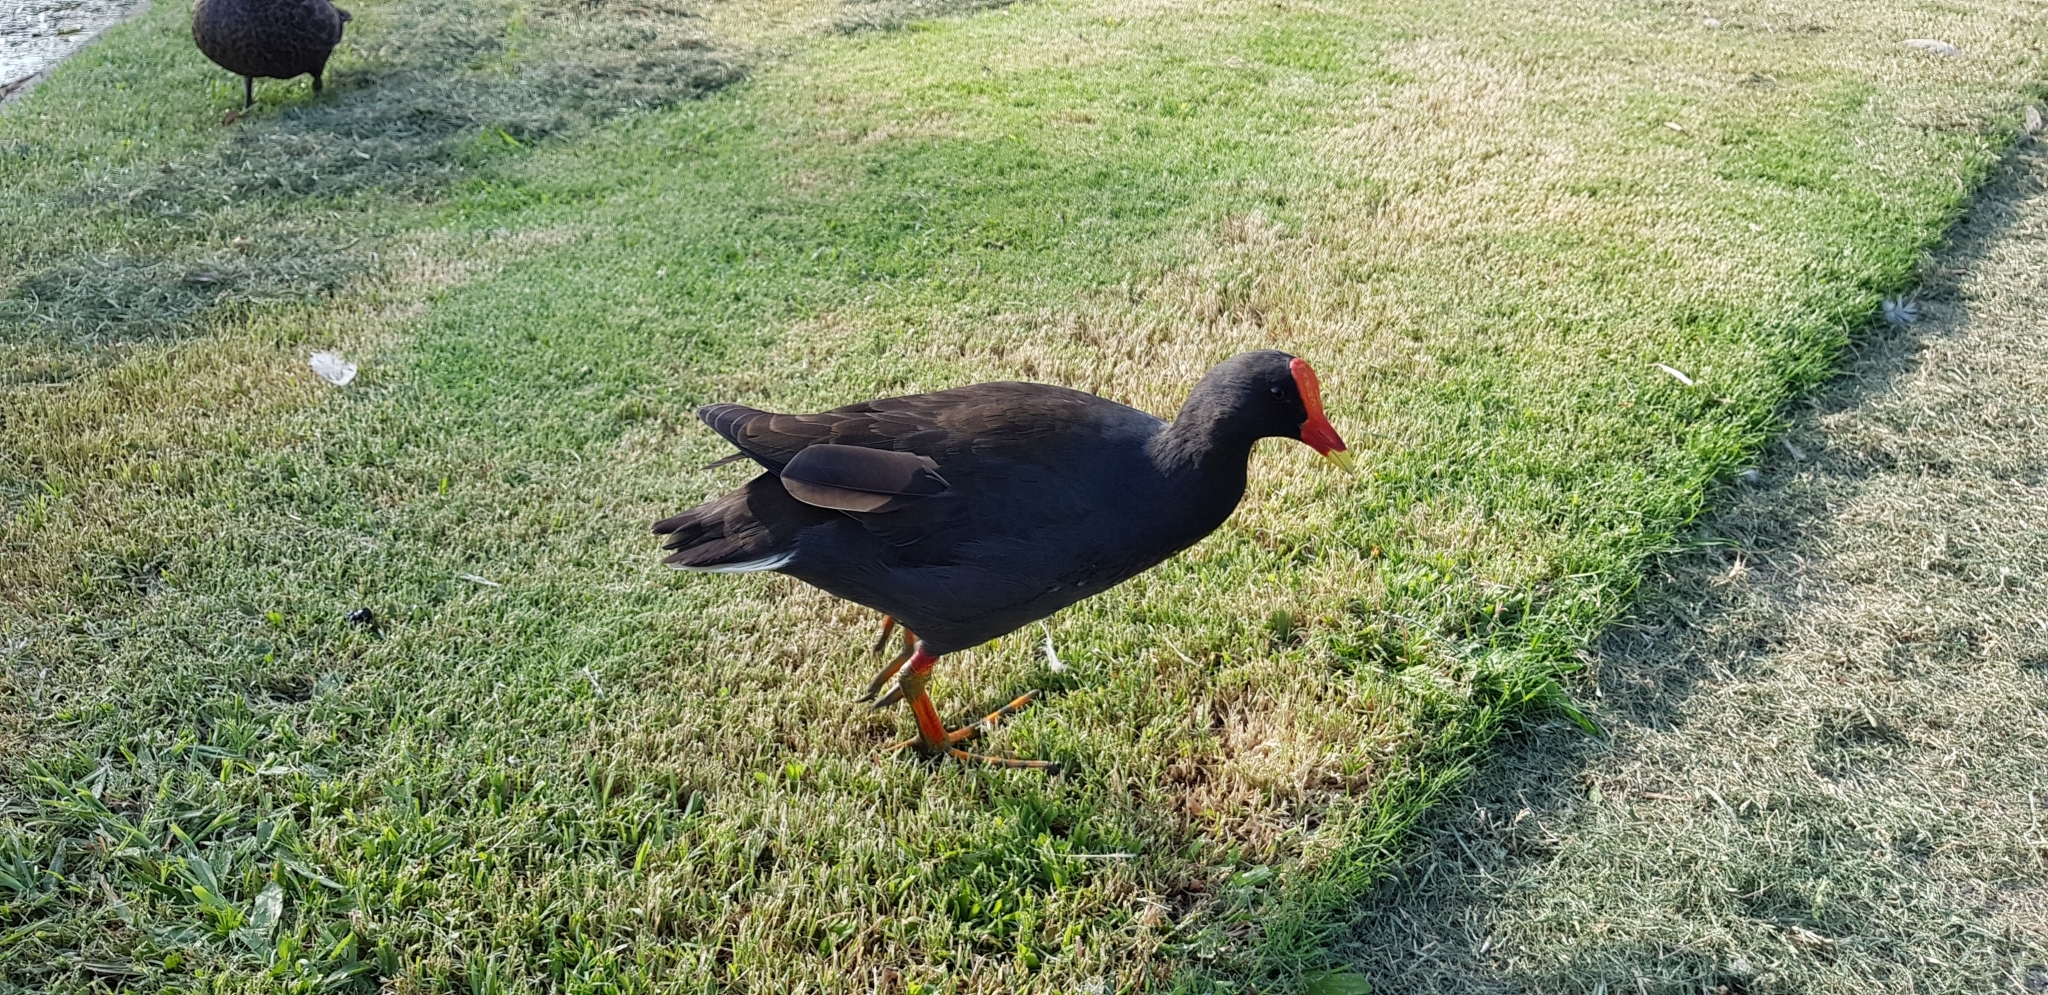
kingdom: Animalia
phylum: Chordata
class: Aves
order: Gruiformes
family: Rallidae
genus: Gallinula
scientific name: Gallinula tenebrosa
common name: Dusky moorhen
